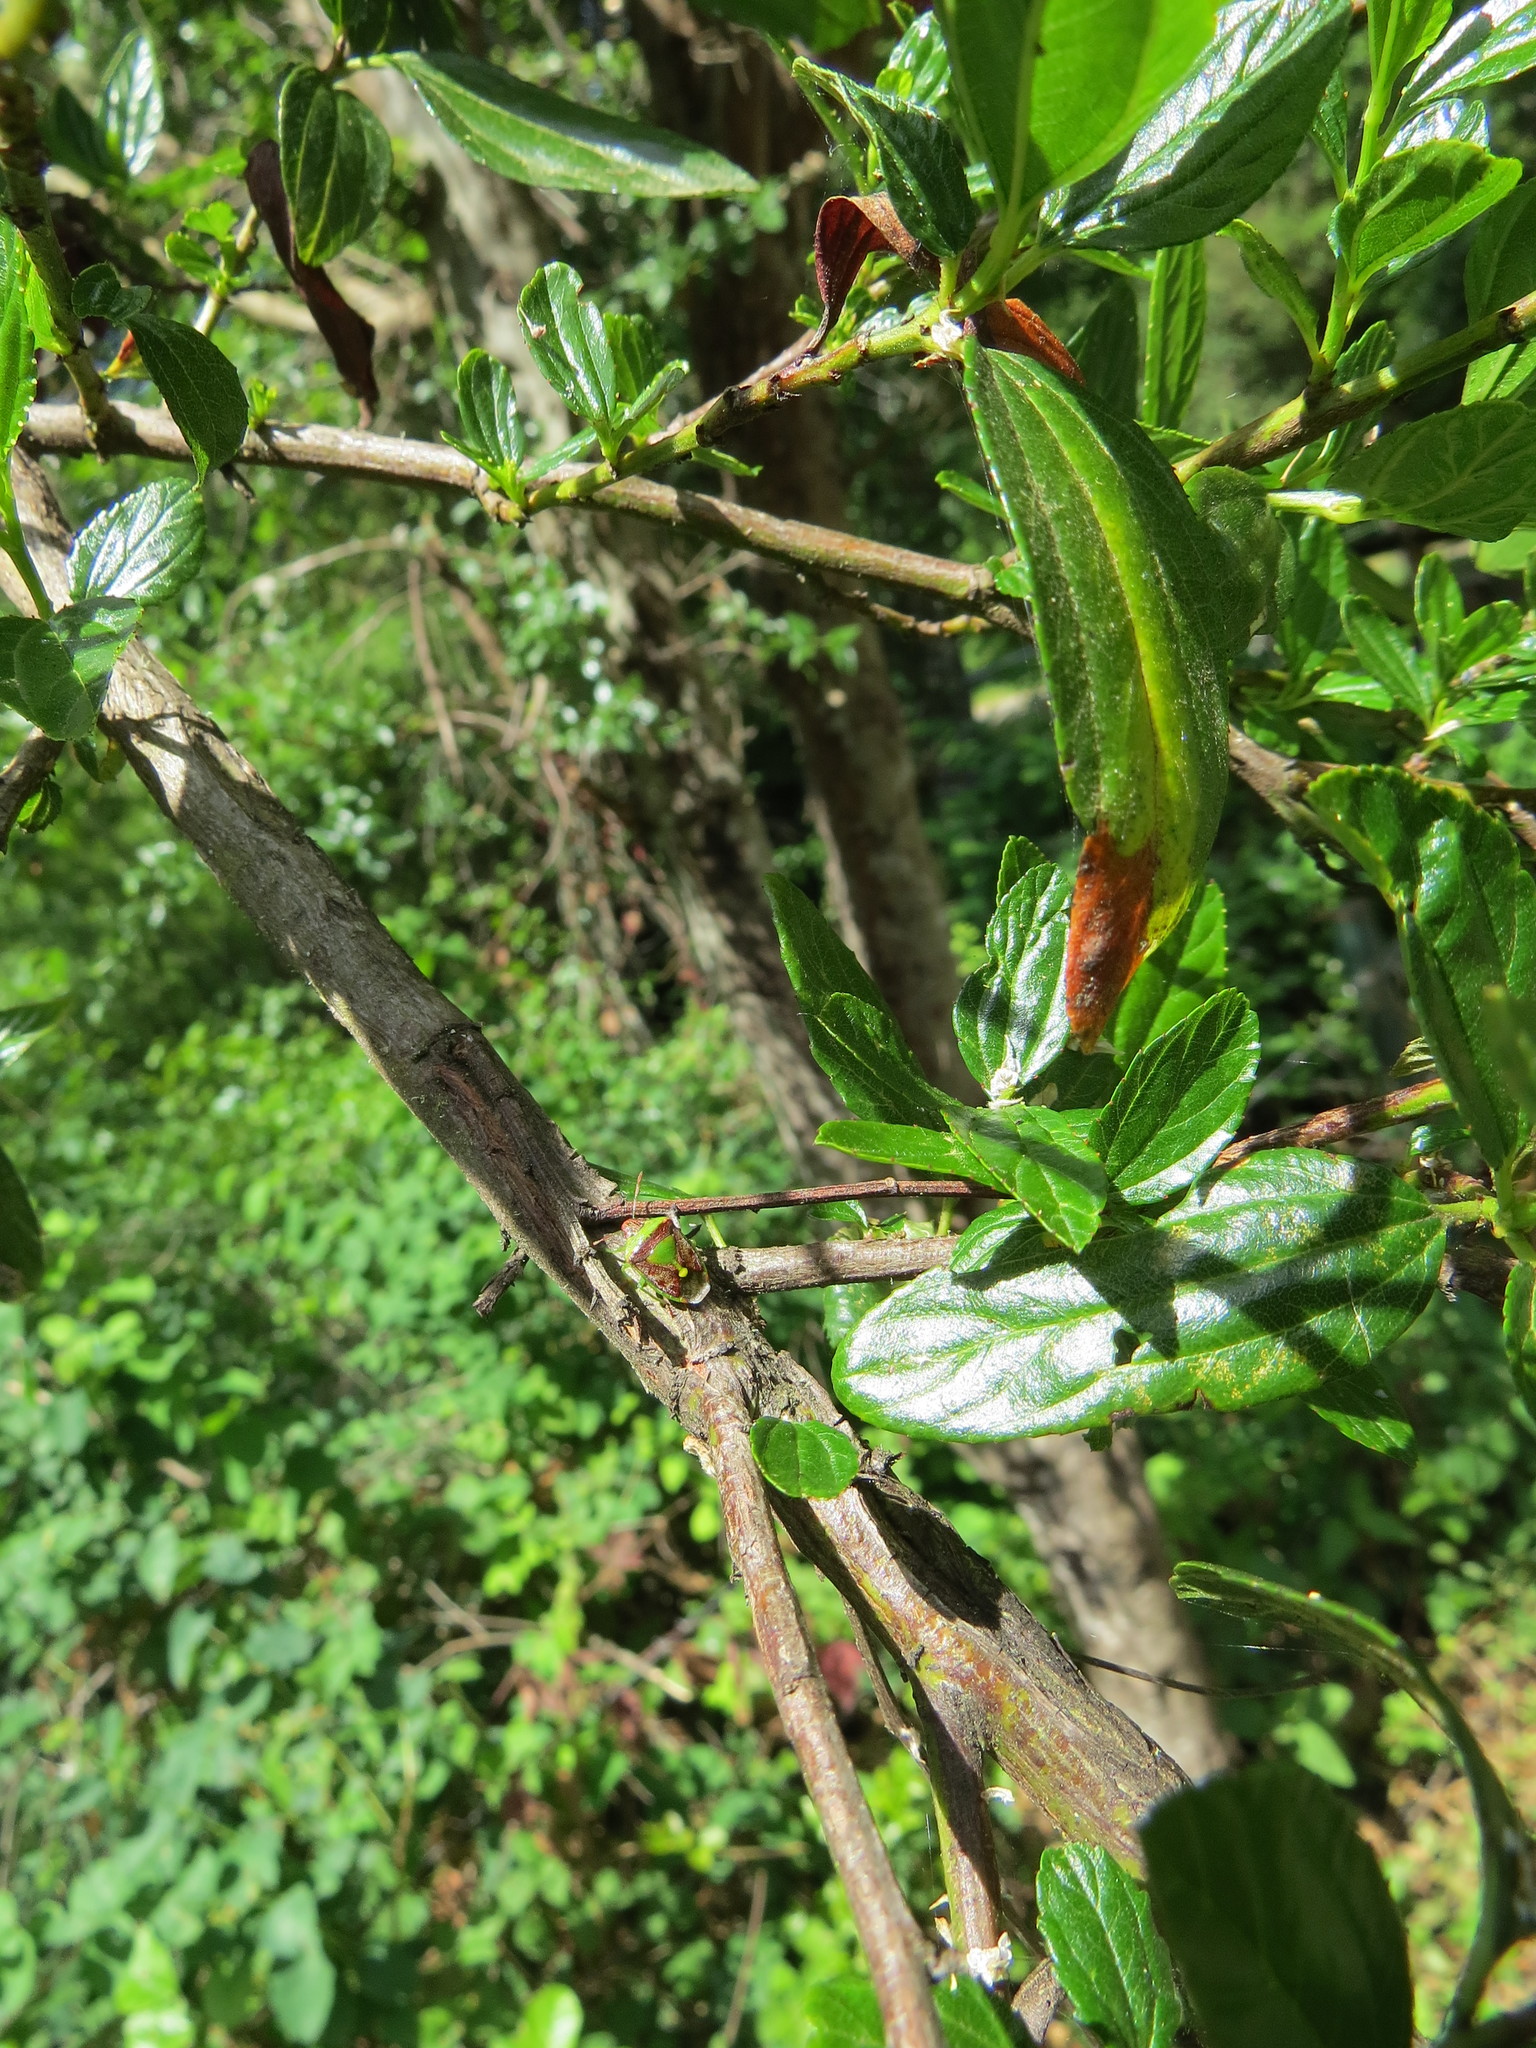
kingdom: Animalia
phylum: Arthropoda
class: Insecta
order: Hemiptera
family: Pentatomidae
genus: Banasa
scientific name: Banasa dimidiata
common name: Green burgundy stink bug
